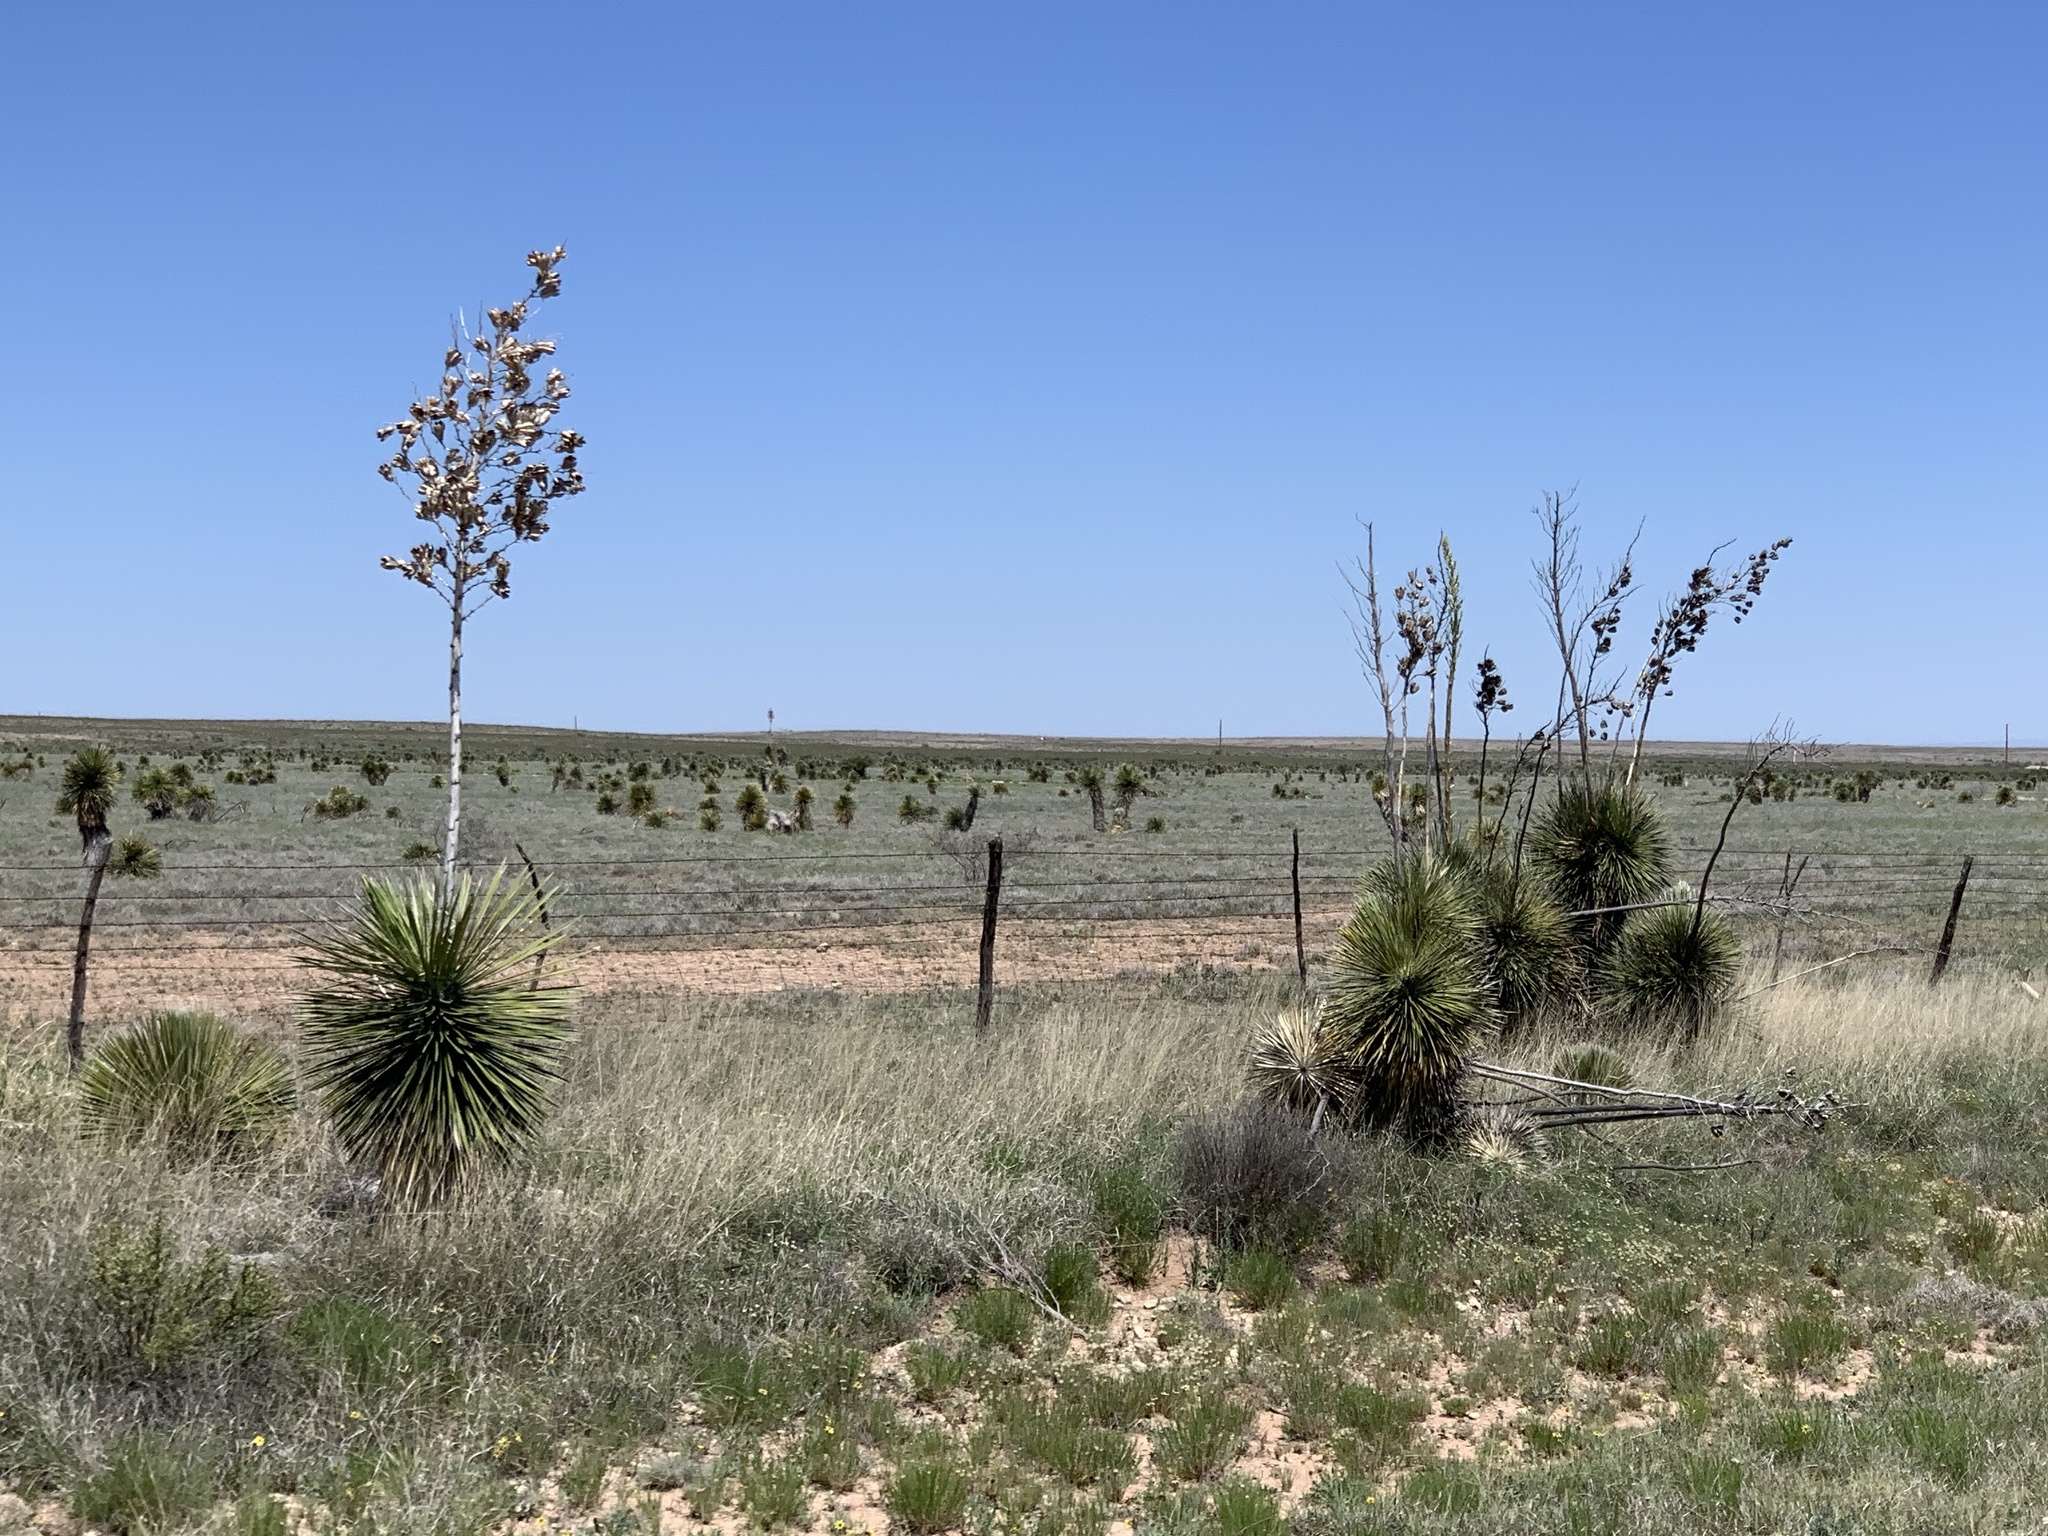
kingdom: Plantae
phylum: Tracheophyta
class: Liliopsida
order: Asparagales
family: Asparagaceae
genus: Yucca
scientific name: Yucca elata
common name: Palmella
